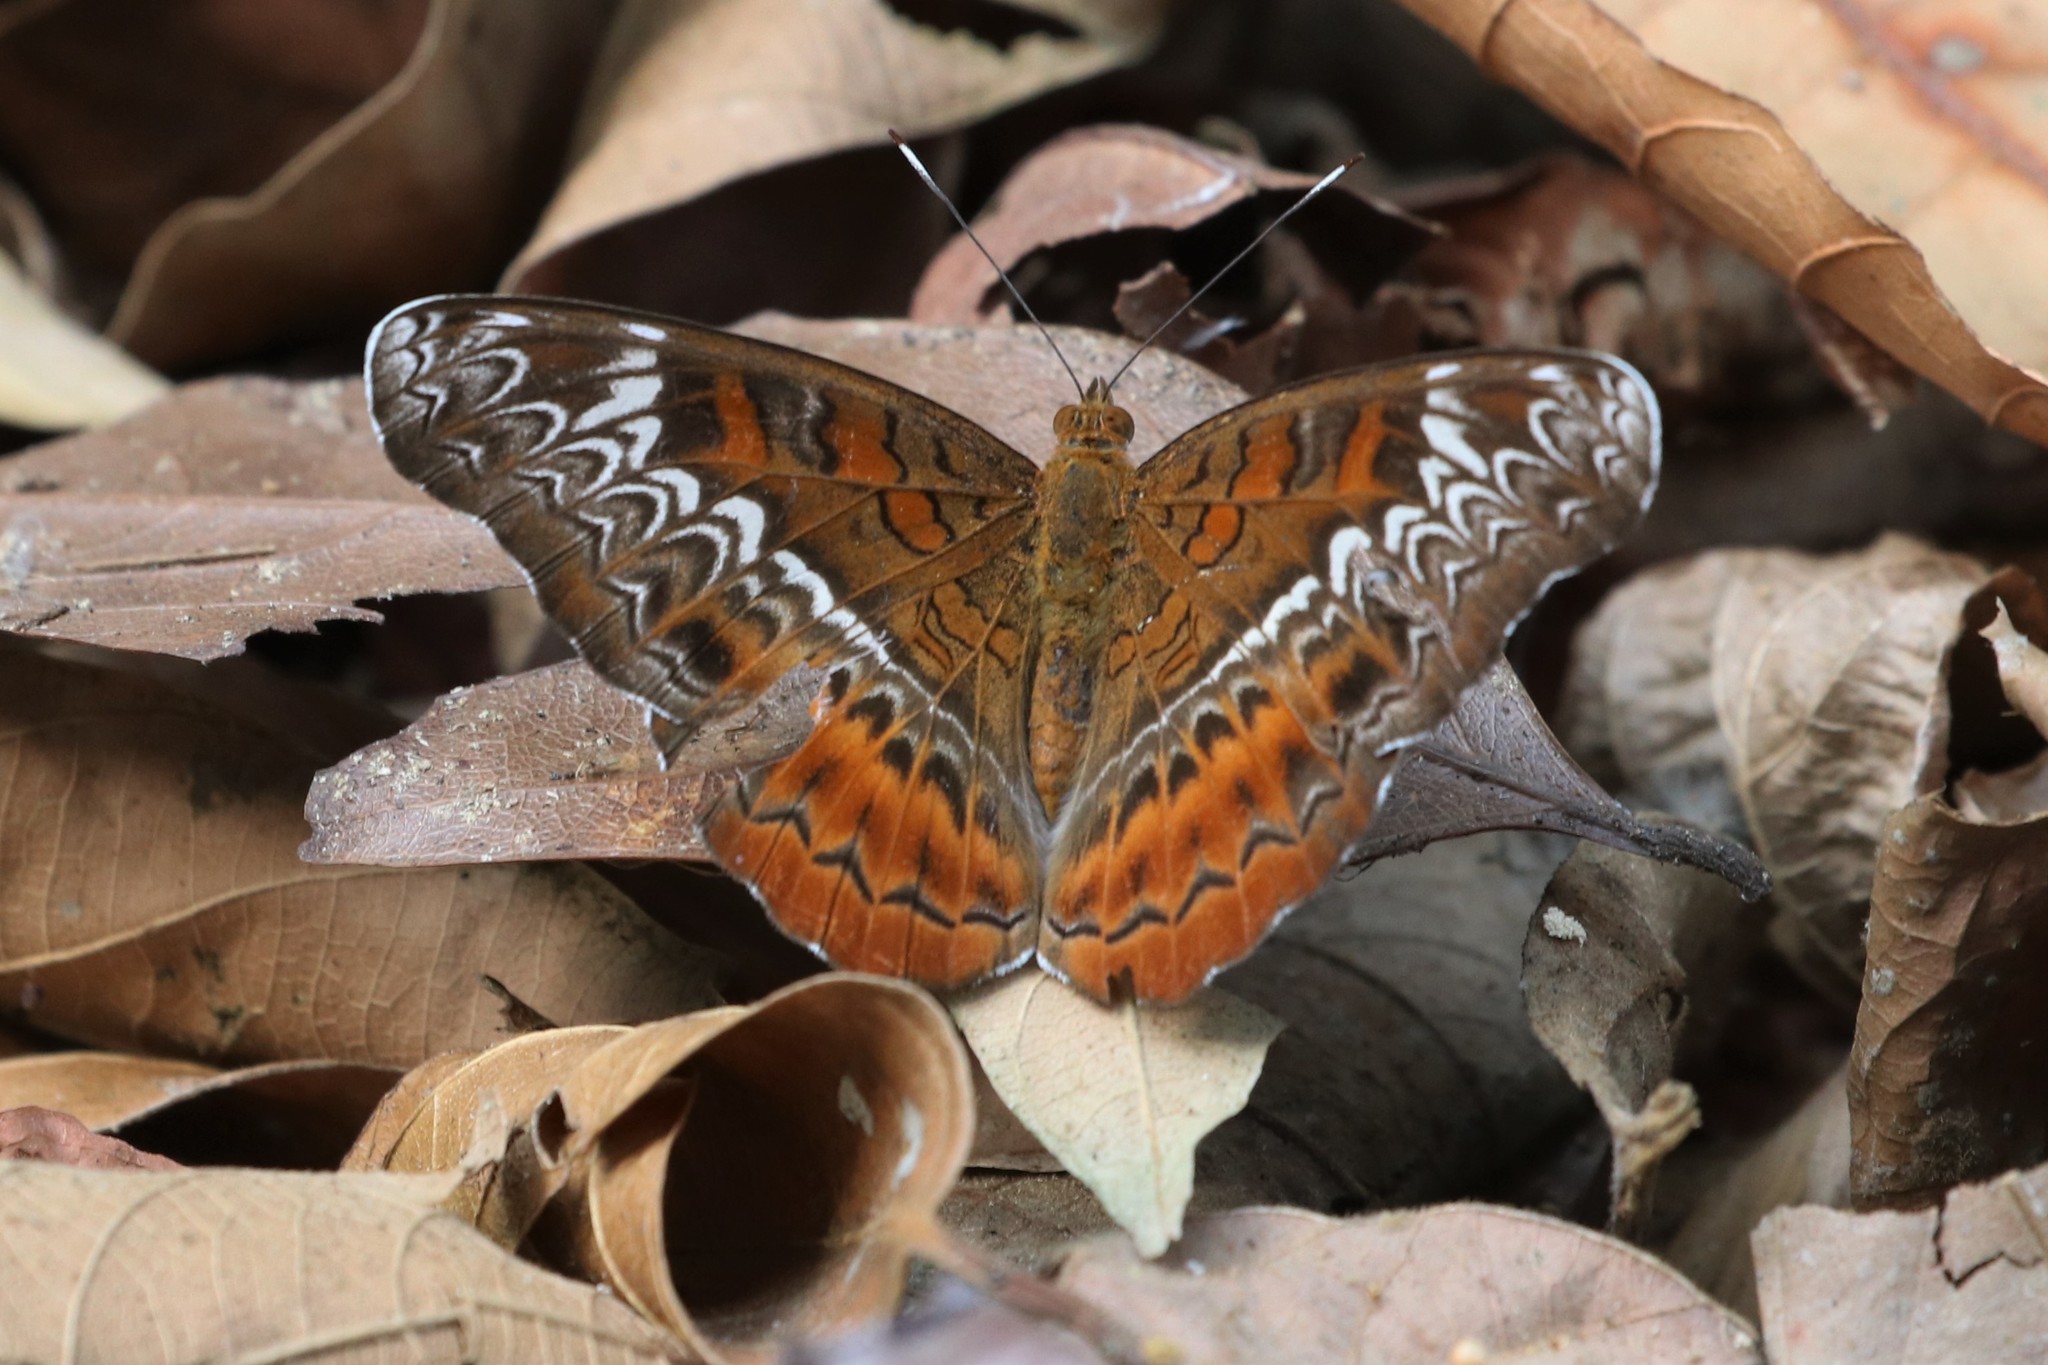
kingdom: Animalia
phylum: Arthropoda
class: Insecta
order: Lepidoptera
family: Nymphalidae
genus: Lebadea
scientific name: Lebadea martha
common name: Knight
